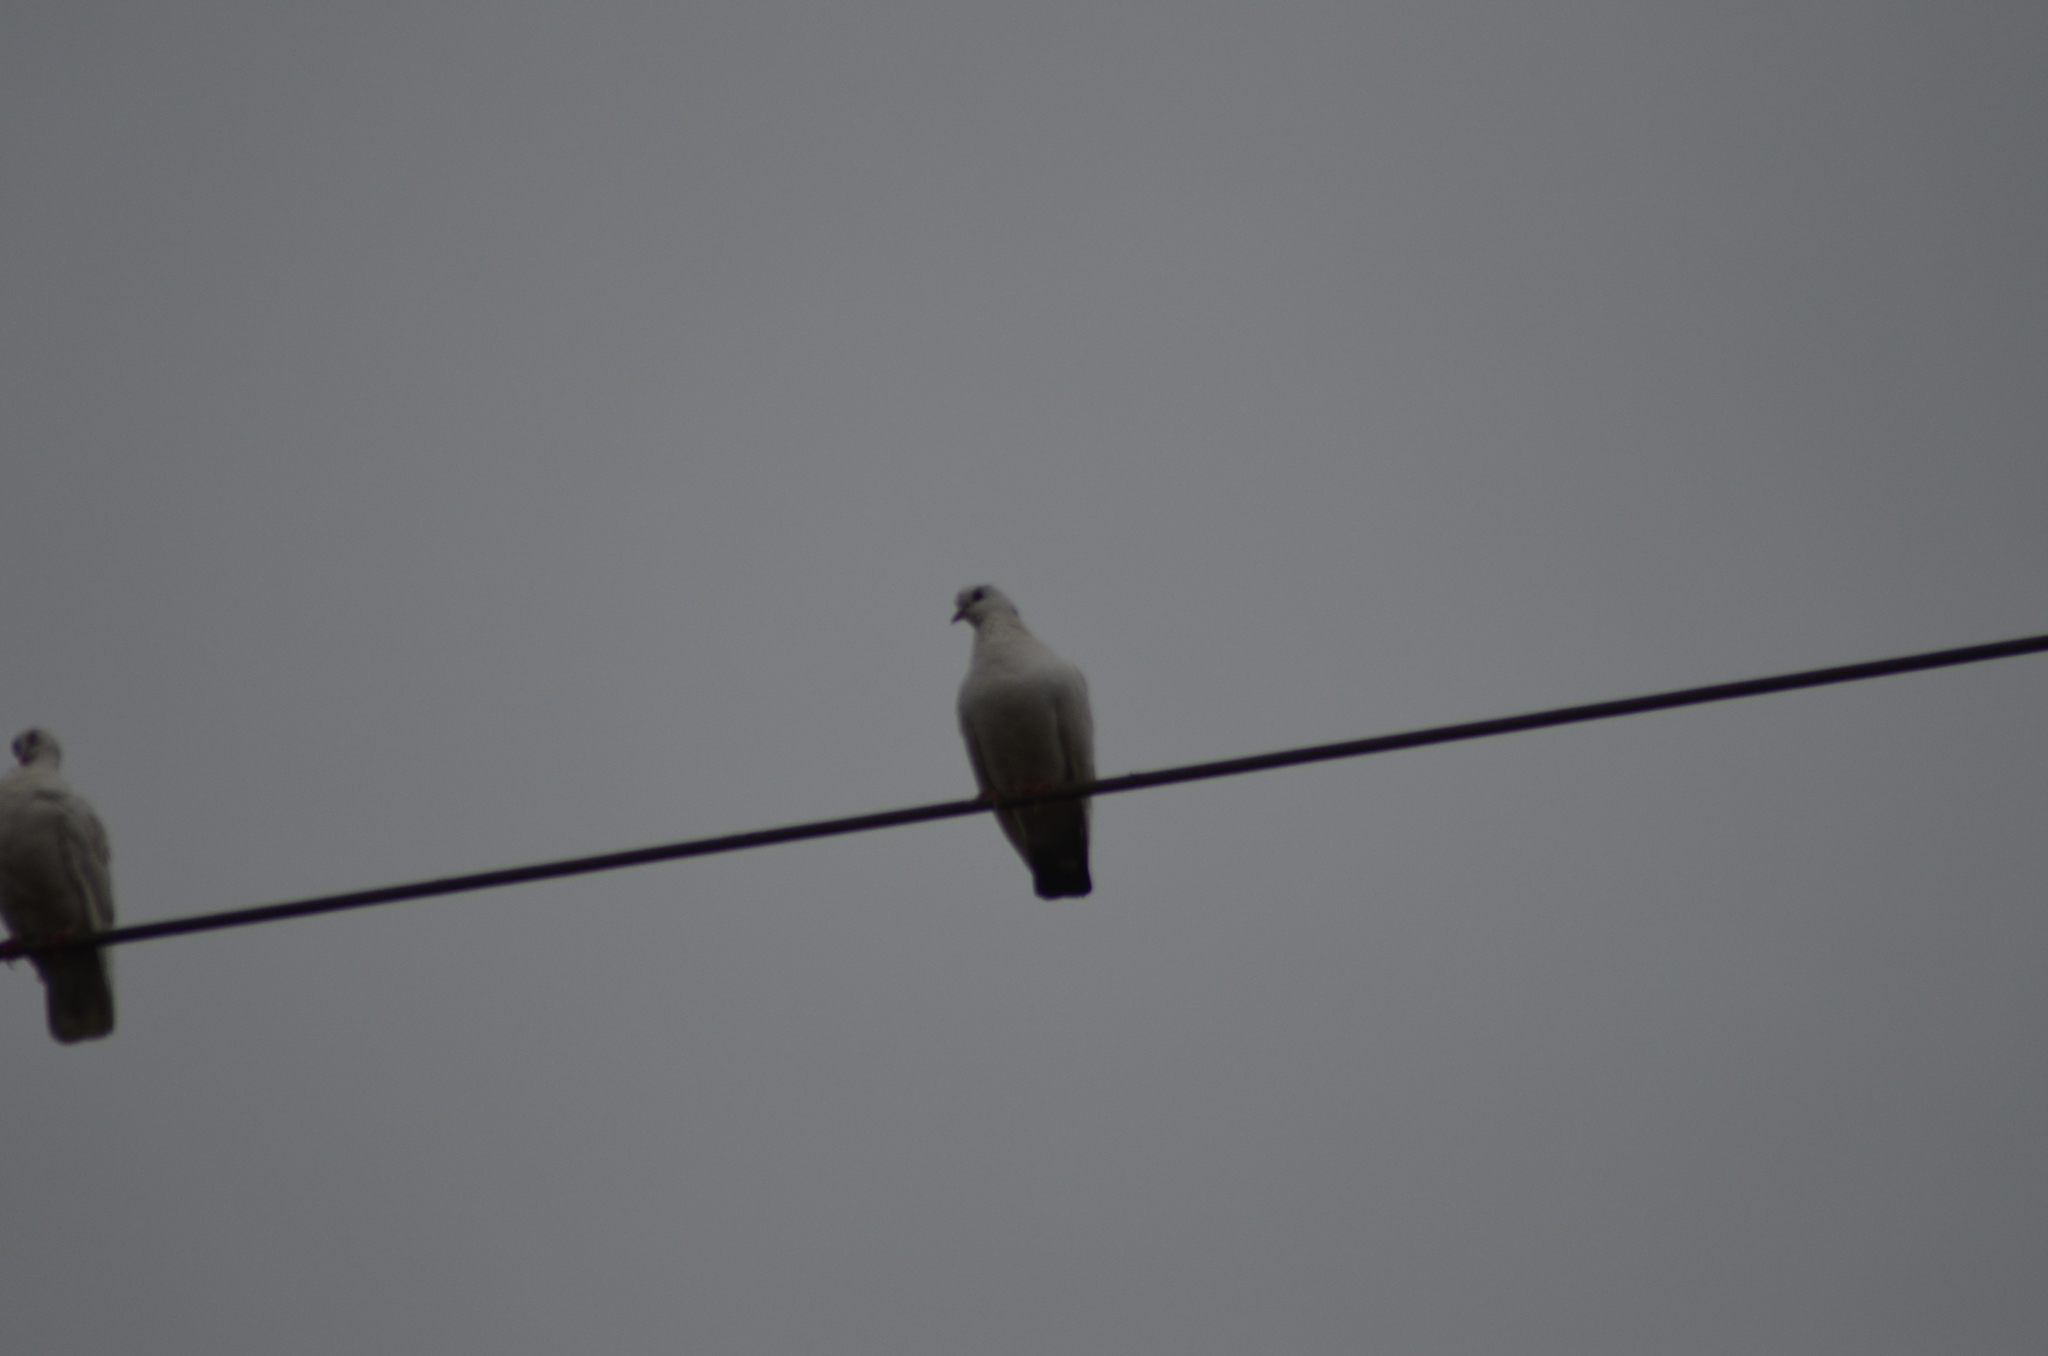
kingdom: Animalia
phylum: Chordata
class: Aves
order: Columbiformes
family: Columbidae
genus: Columba
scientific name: Columba livia
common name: Rock pigeon
